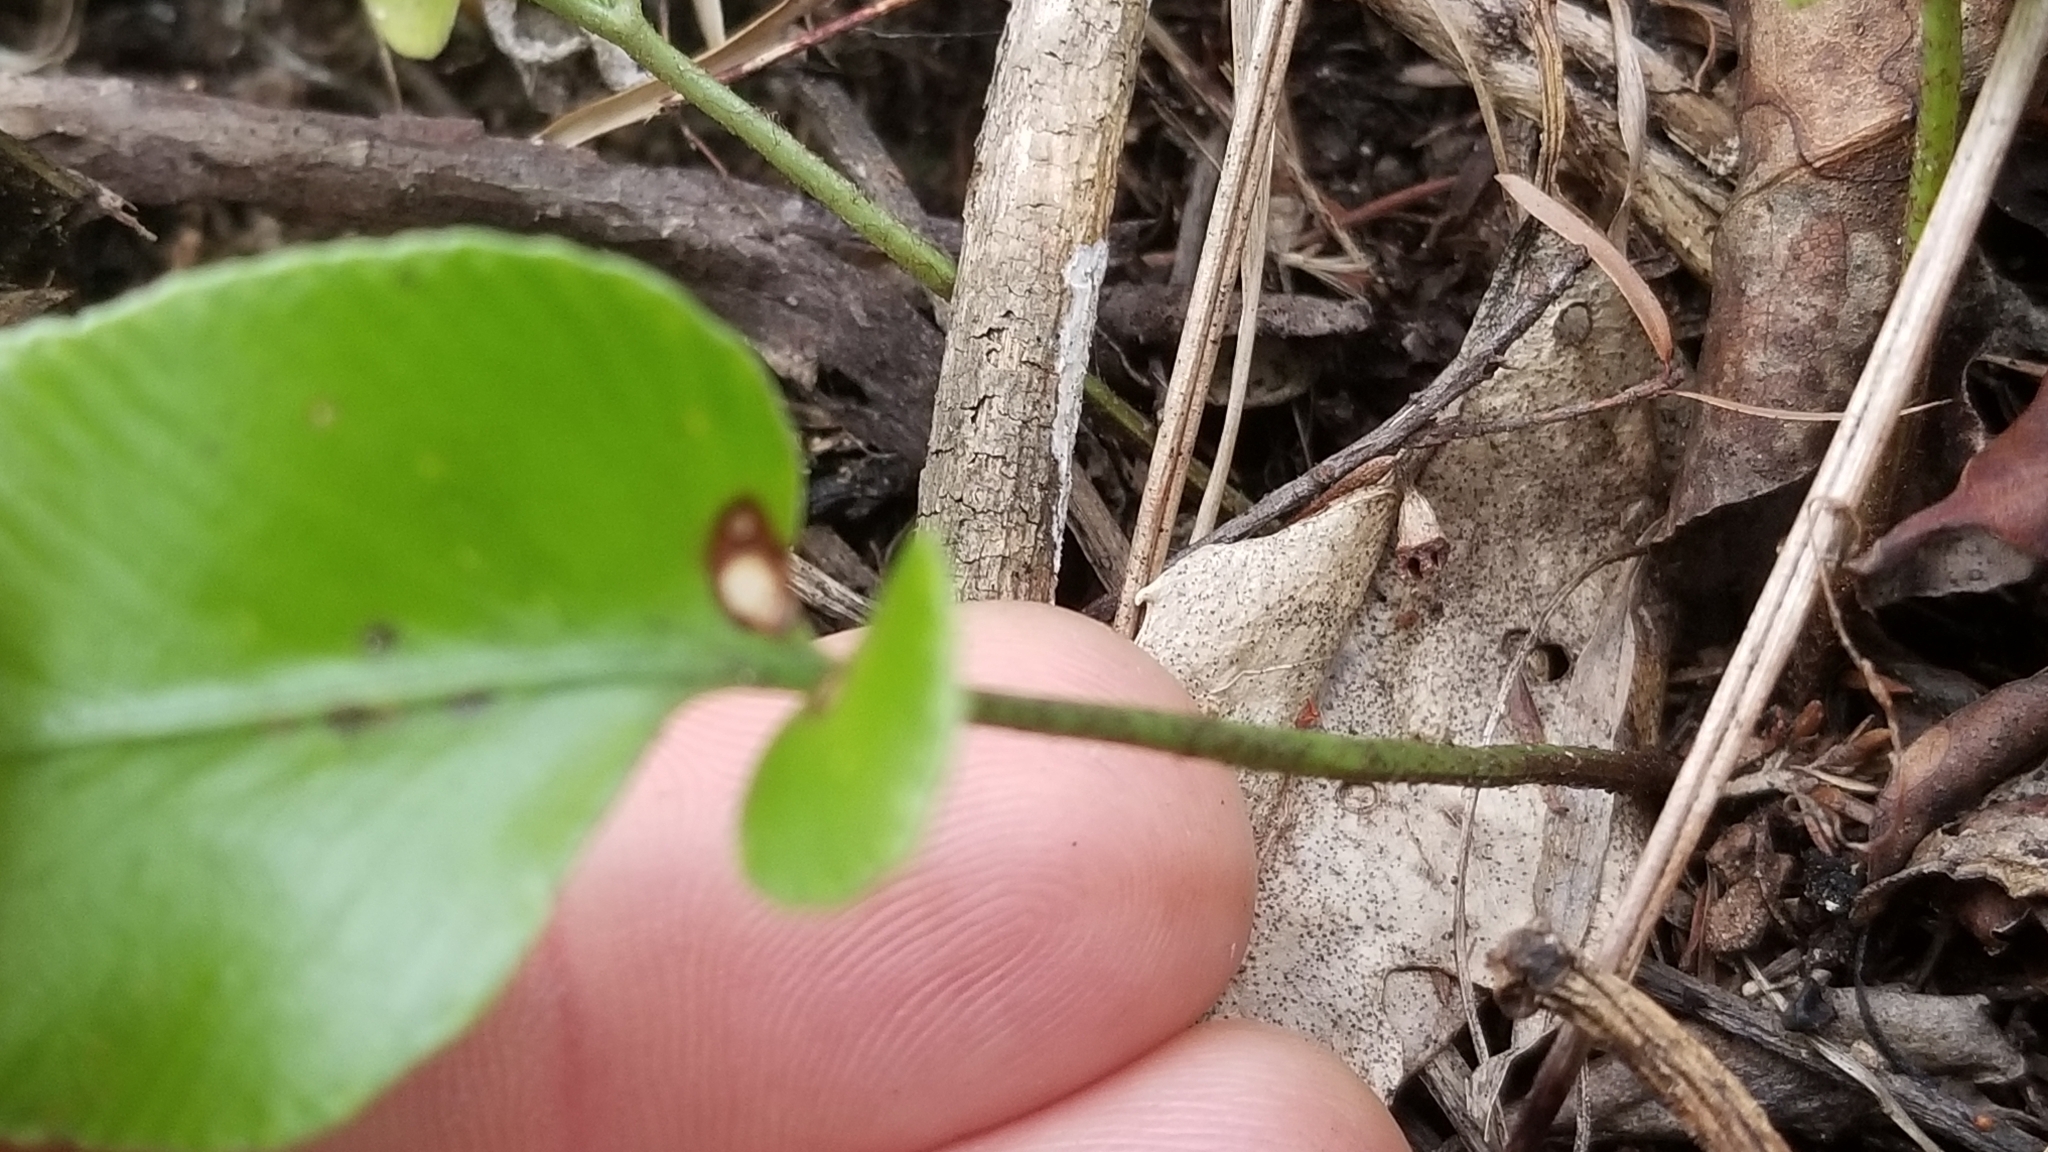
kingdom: Plantae
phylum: Tracheophyta
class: Polypodiopsida
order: Polypodiales
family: Aspleniaceae
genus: Asplenium
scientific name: Asplenium oblongifolium
